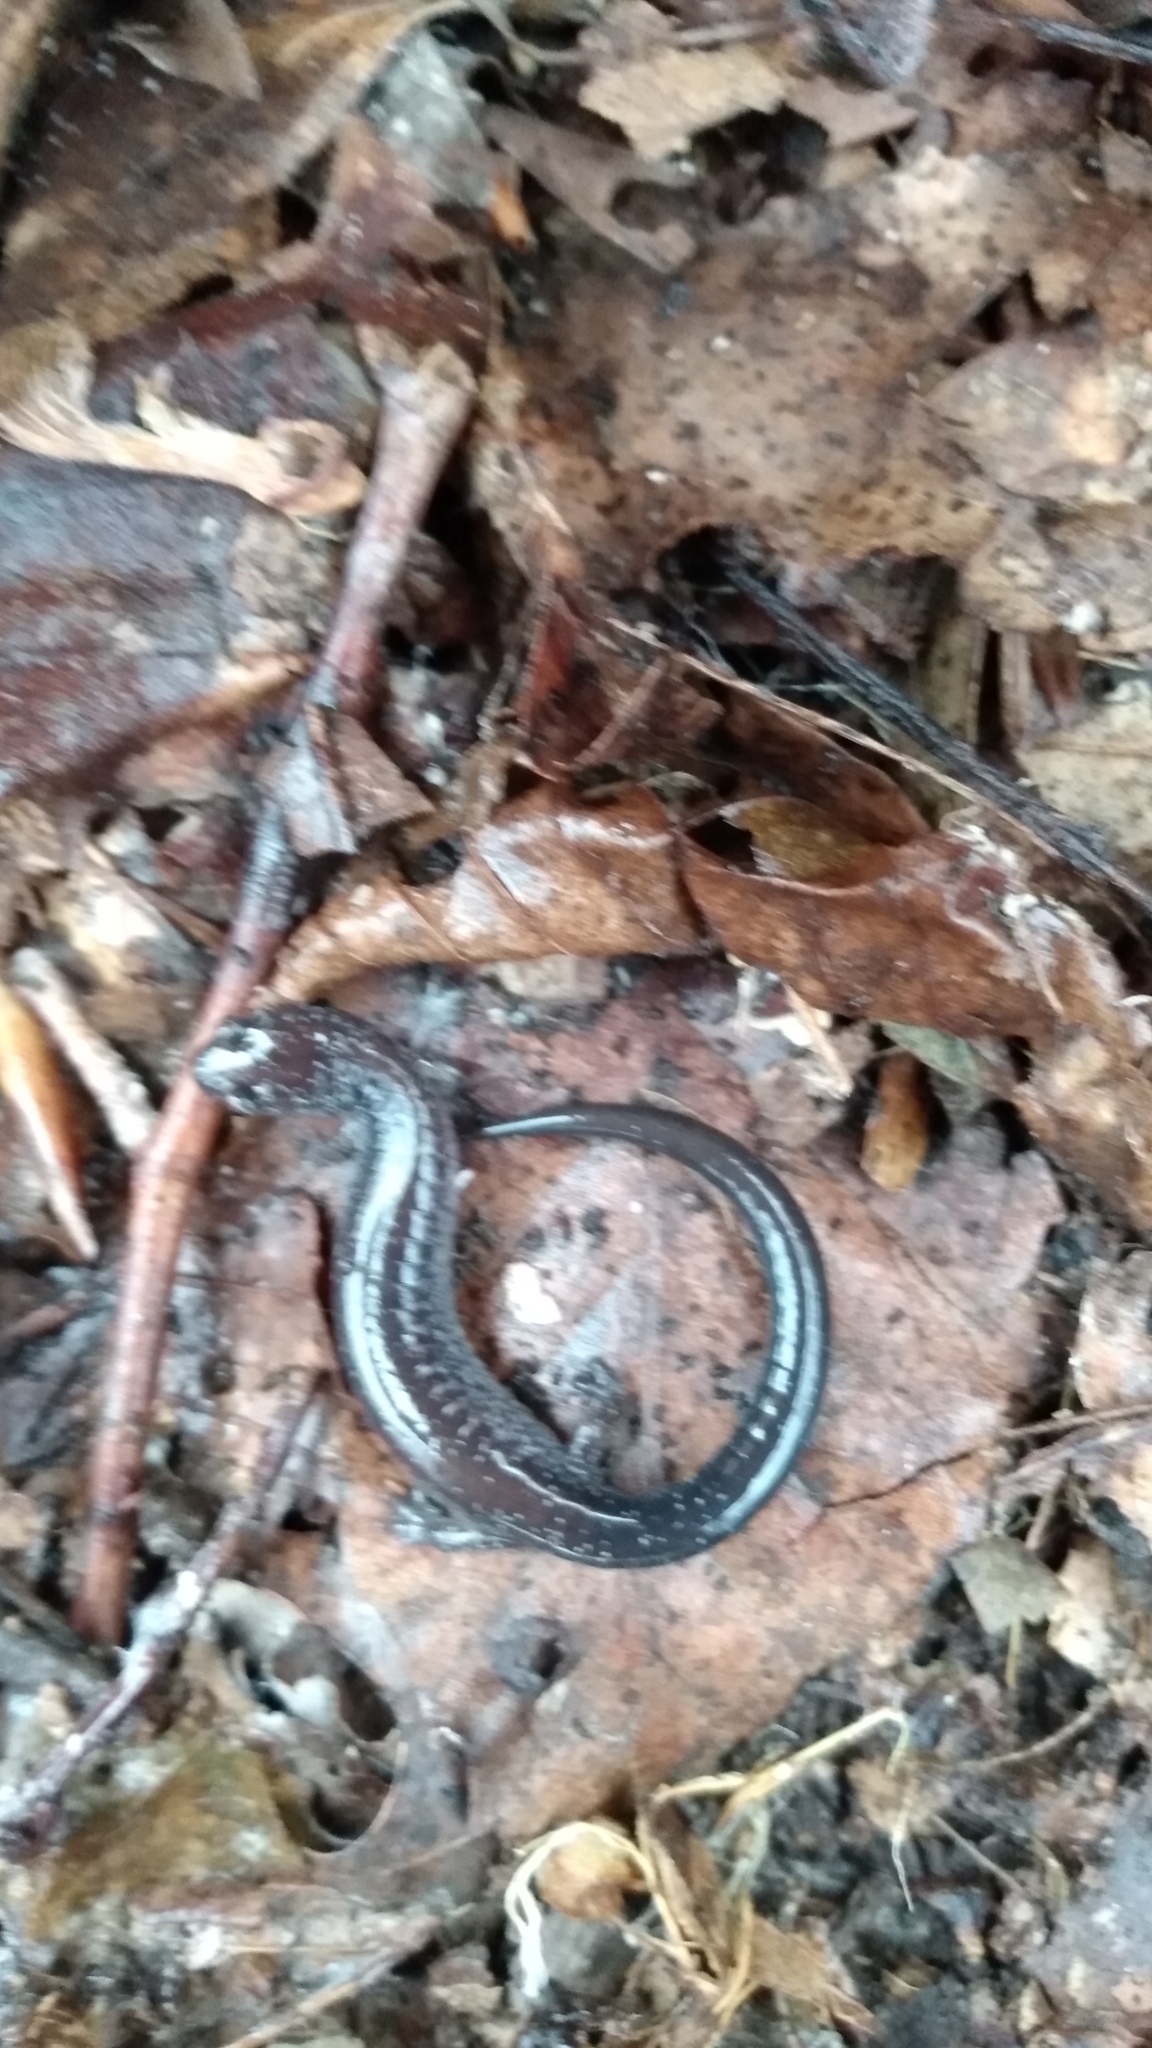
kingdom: Animalia
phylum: Chordata
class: Amphibia
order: Caudata
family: Plethodontidae
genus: Plethodon
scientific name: Plethodon cinereus
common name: Redback salamander
